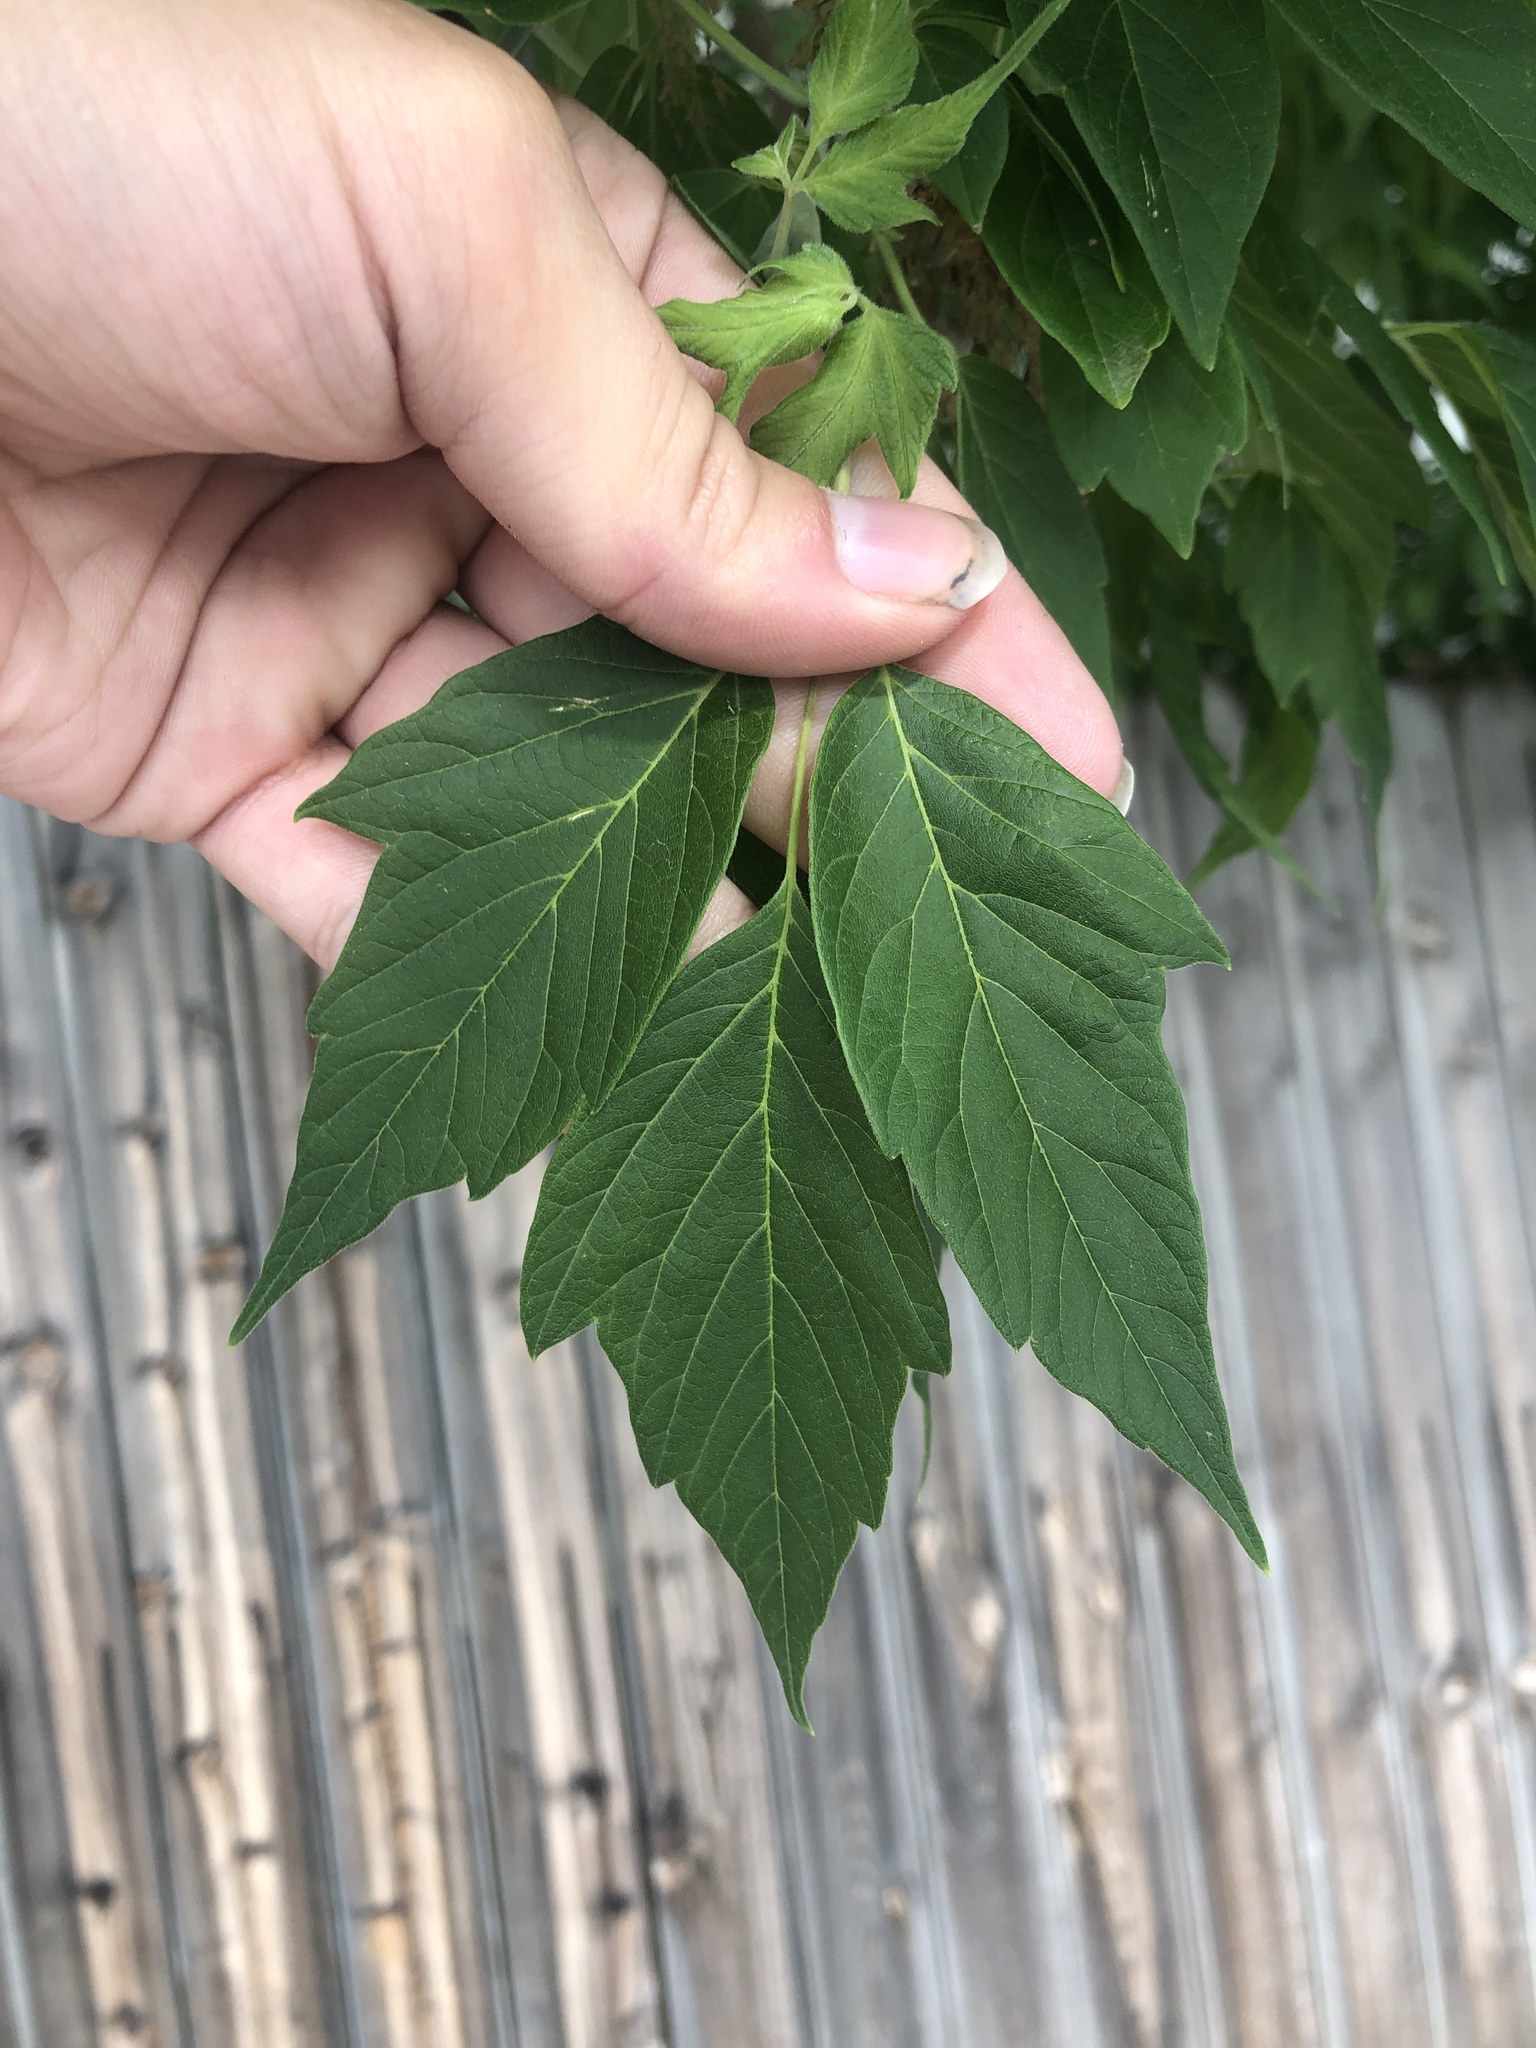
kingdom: Plantae
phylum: Tracheophyta
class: Magnoliopsida
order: Sapindales
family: Sapindaceae
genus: Acer
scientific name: Acer negundo
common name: Ashleaf maple
